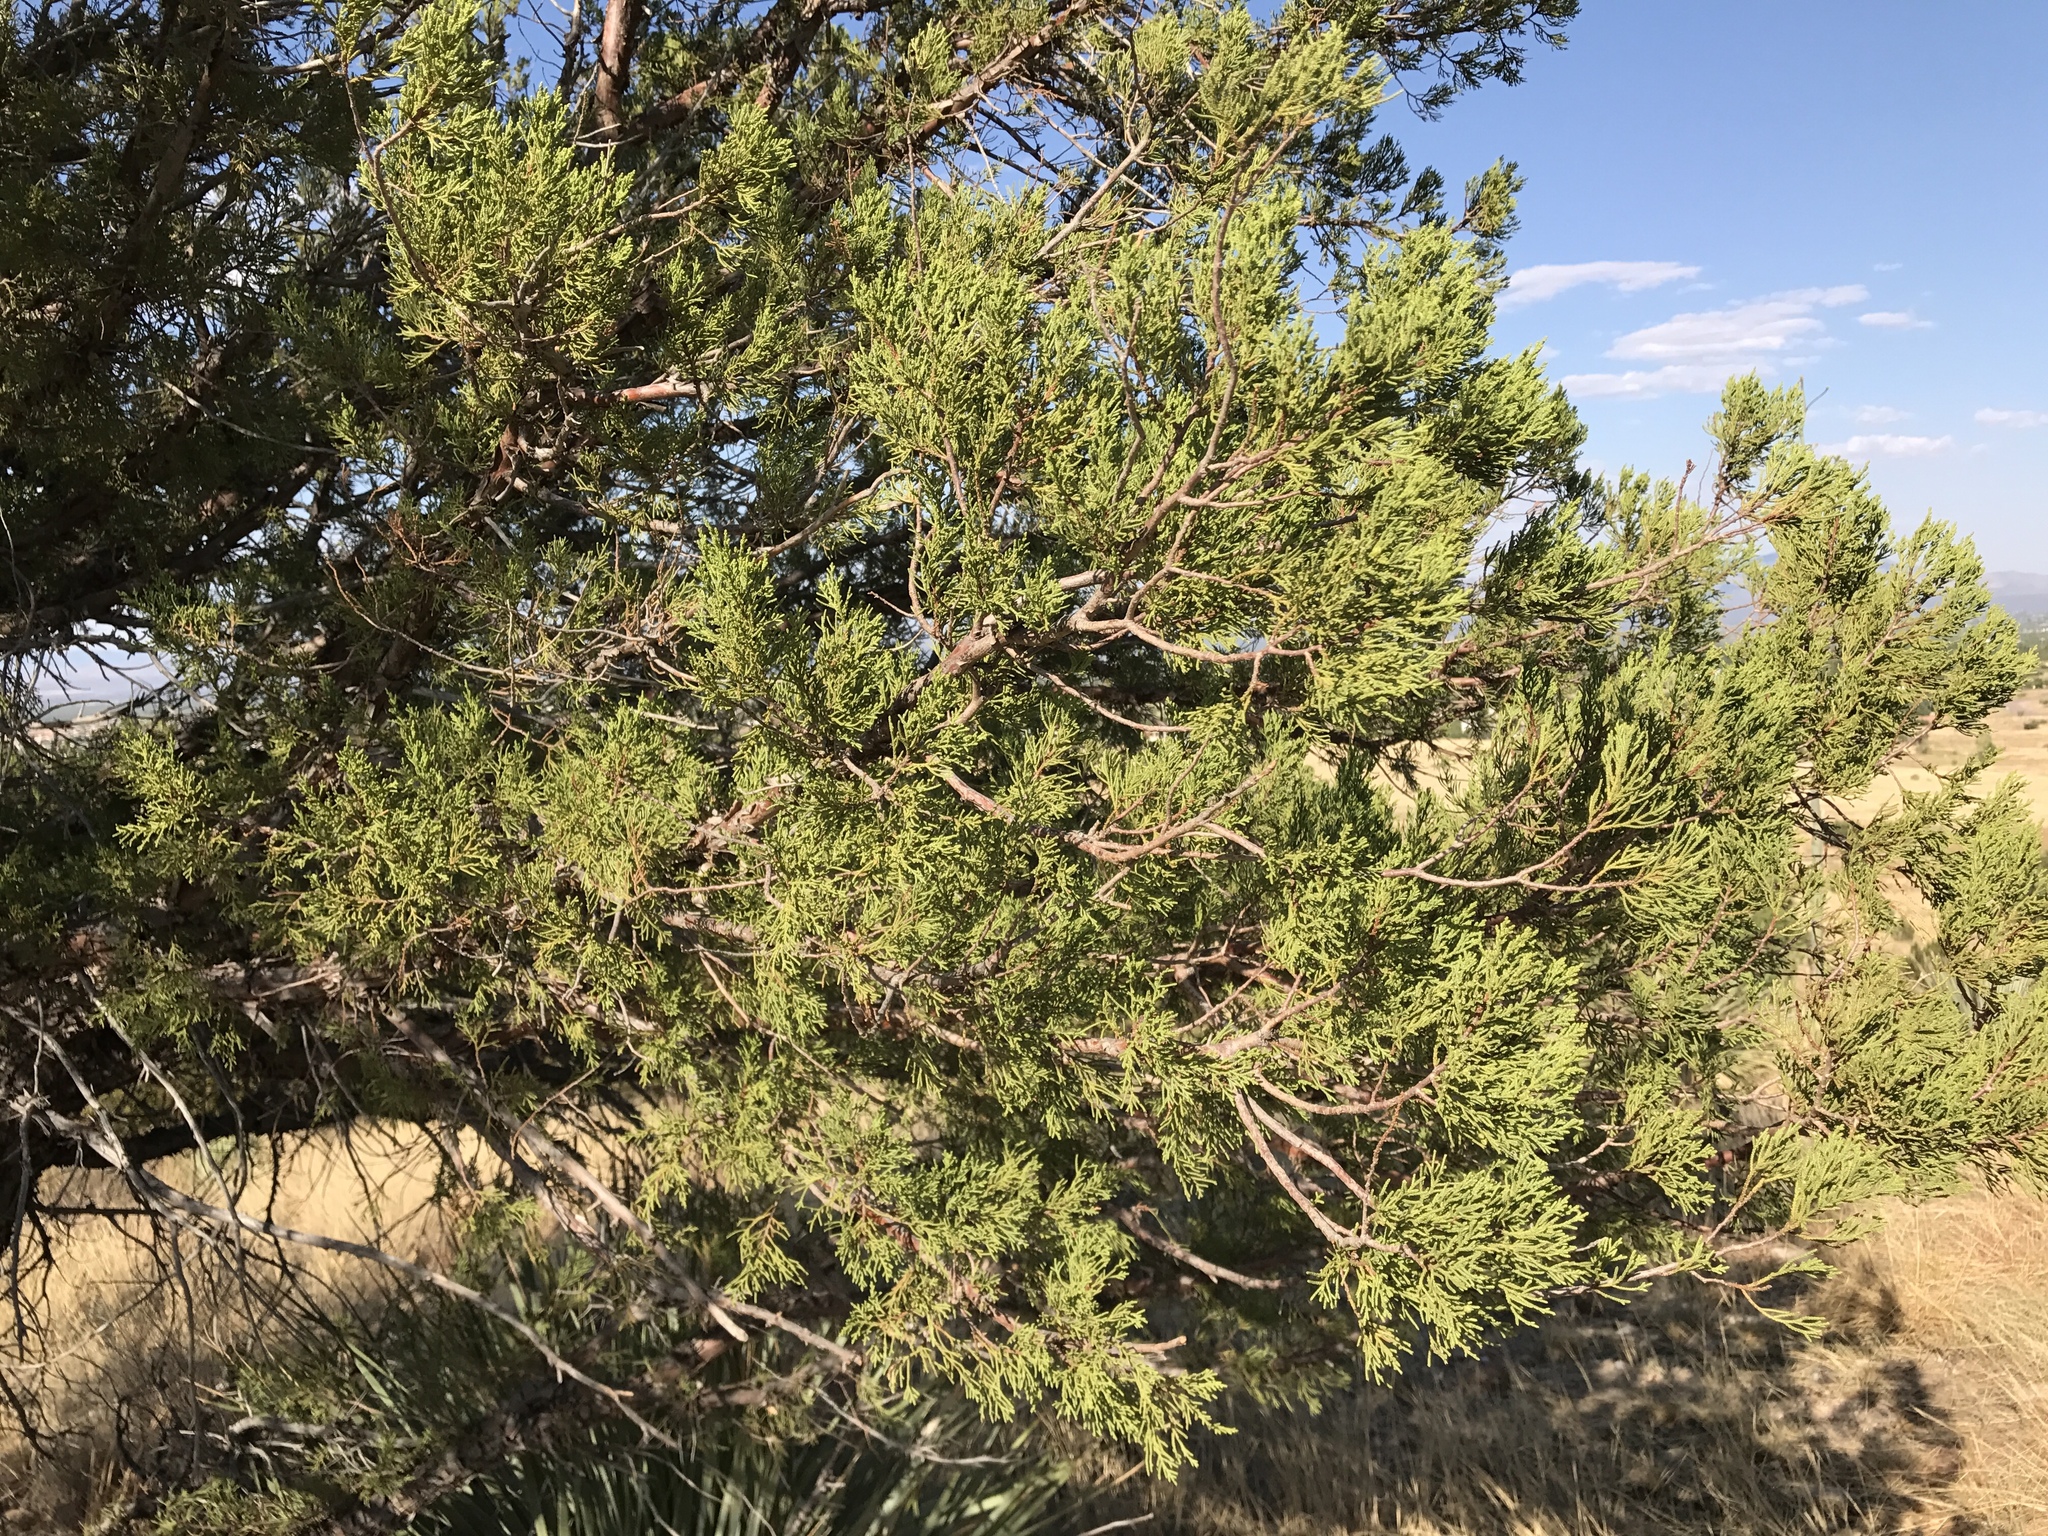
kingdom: Plantae
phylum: Tracheophyta
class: Pinopsida
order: Pinales
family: Cupressaceae
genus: Juniperus
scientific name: Juniperus deppeana
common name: Alligator juniper
